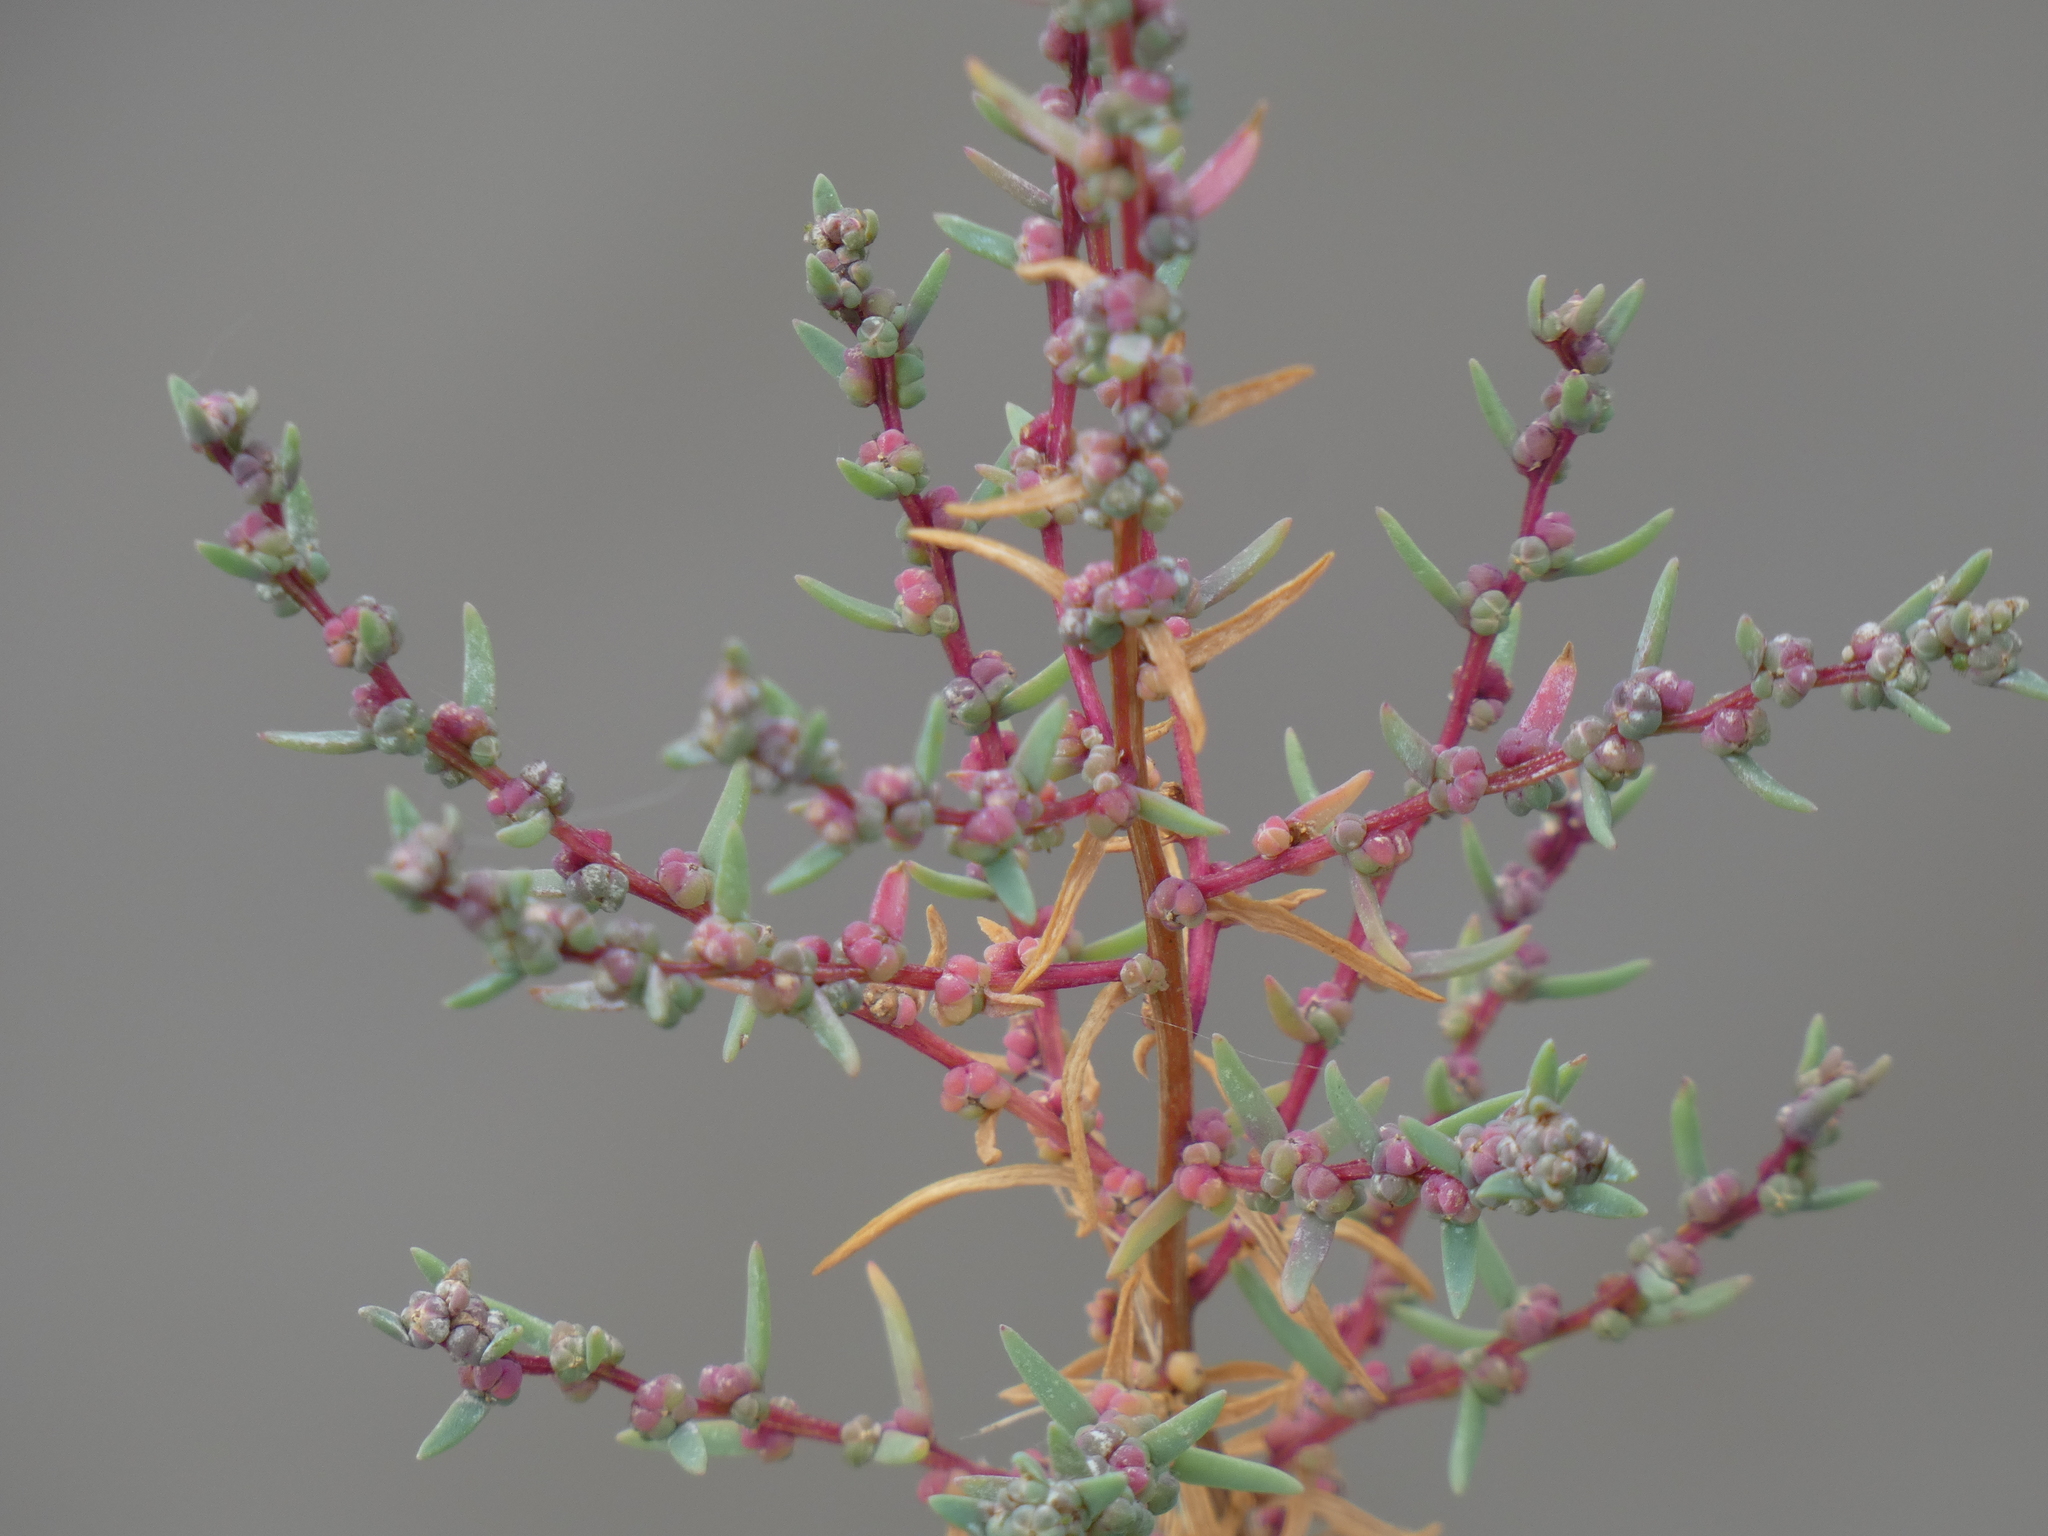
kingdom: Plantae
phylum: Tracheophyta
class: Magnoliopsida
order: Caryophyllales
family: Amaranthaceae
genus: Suaeda
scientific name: Suaeda maritima
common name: Annual sea-blite
